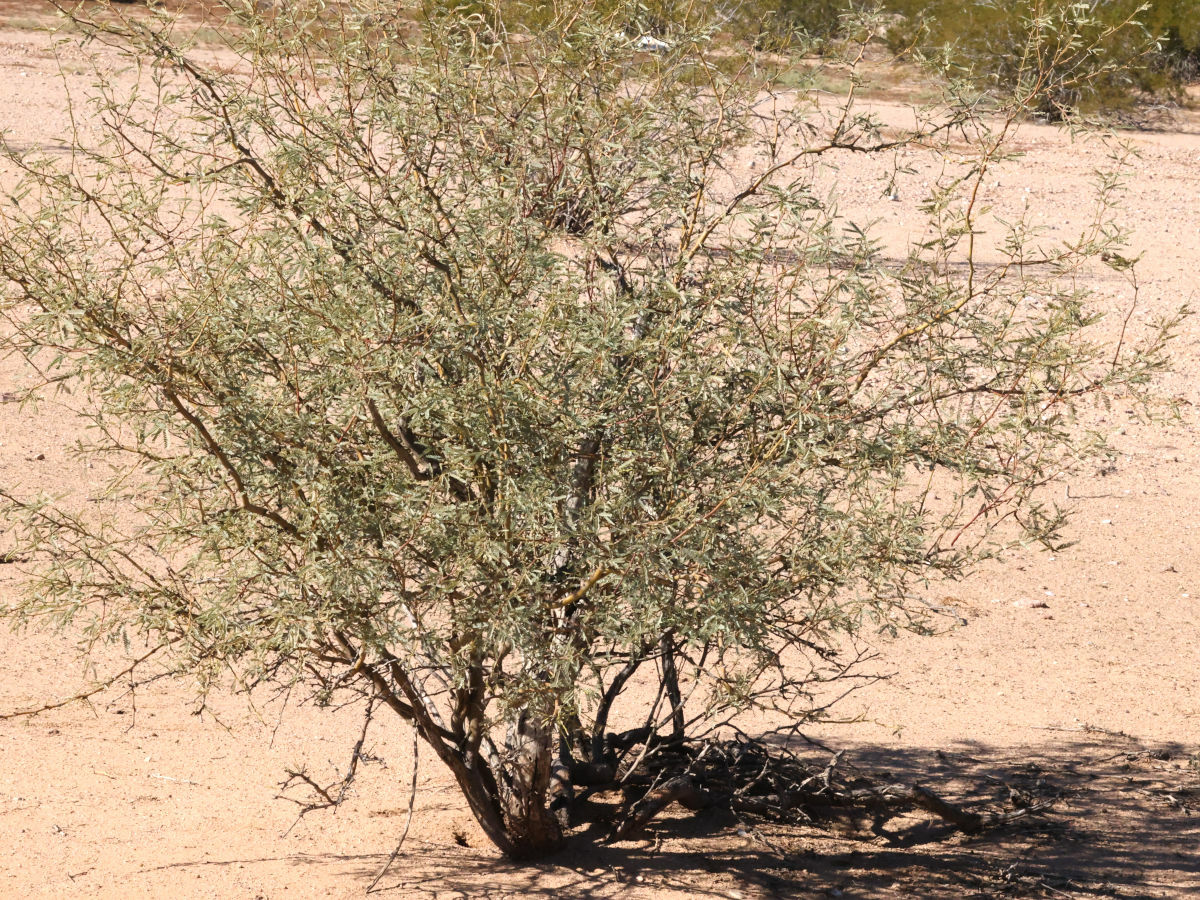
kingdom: Plantae
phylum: Tracheophyta
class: Magnoliopsida
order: Fabales
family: Fabaceae
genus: Prosopis
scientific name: Prosopis velutina
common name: Velvet mesquite
